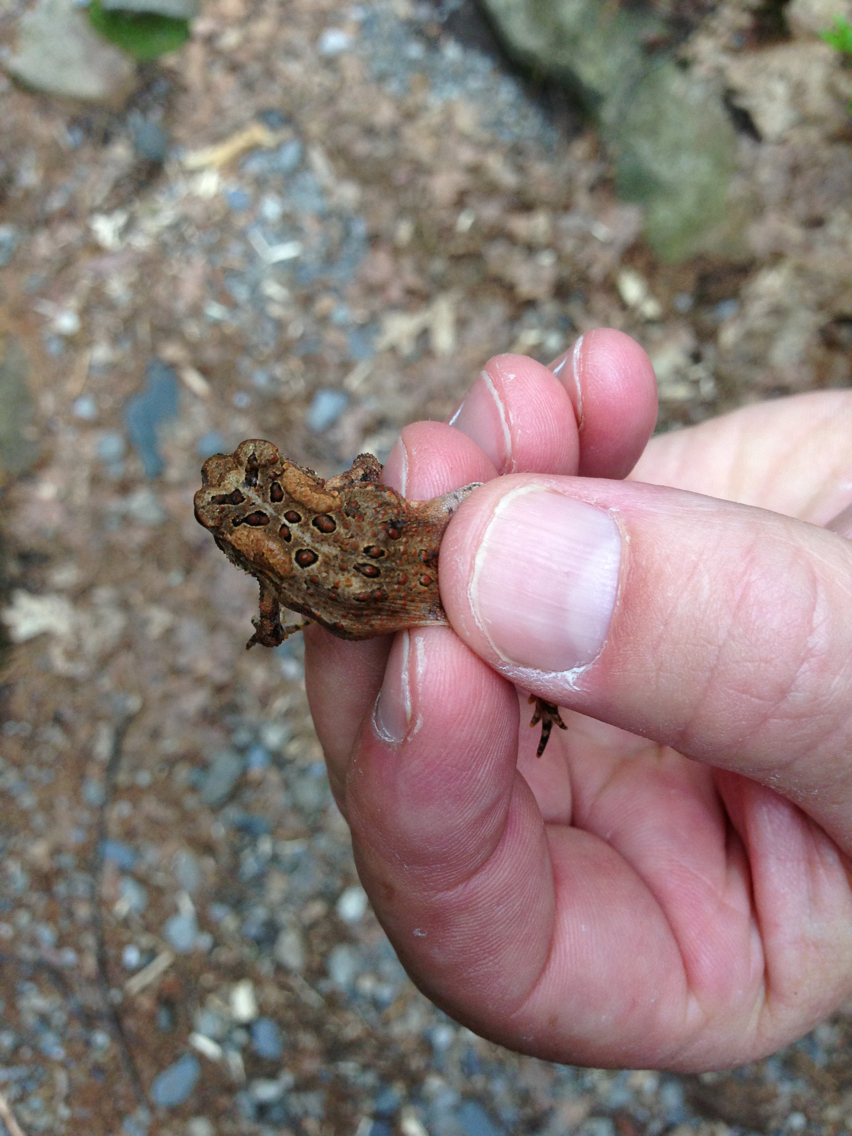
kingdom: Animalia
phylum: Chordata
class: Amphibia
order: Anura
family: Bufonidae
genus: Anaxyrus
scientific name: Anaxyrus americanus
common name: American toad
